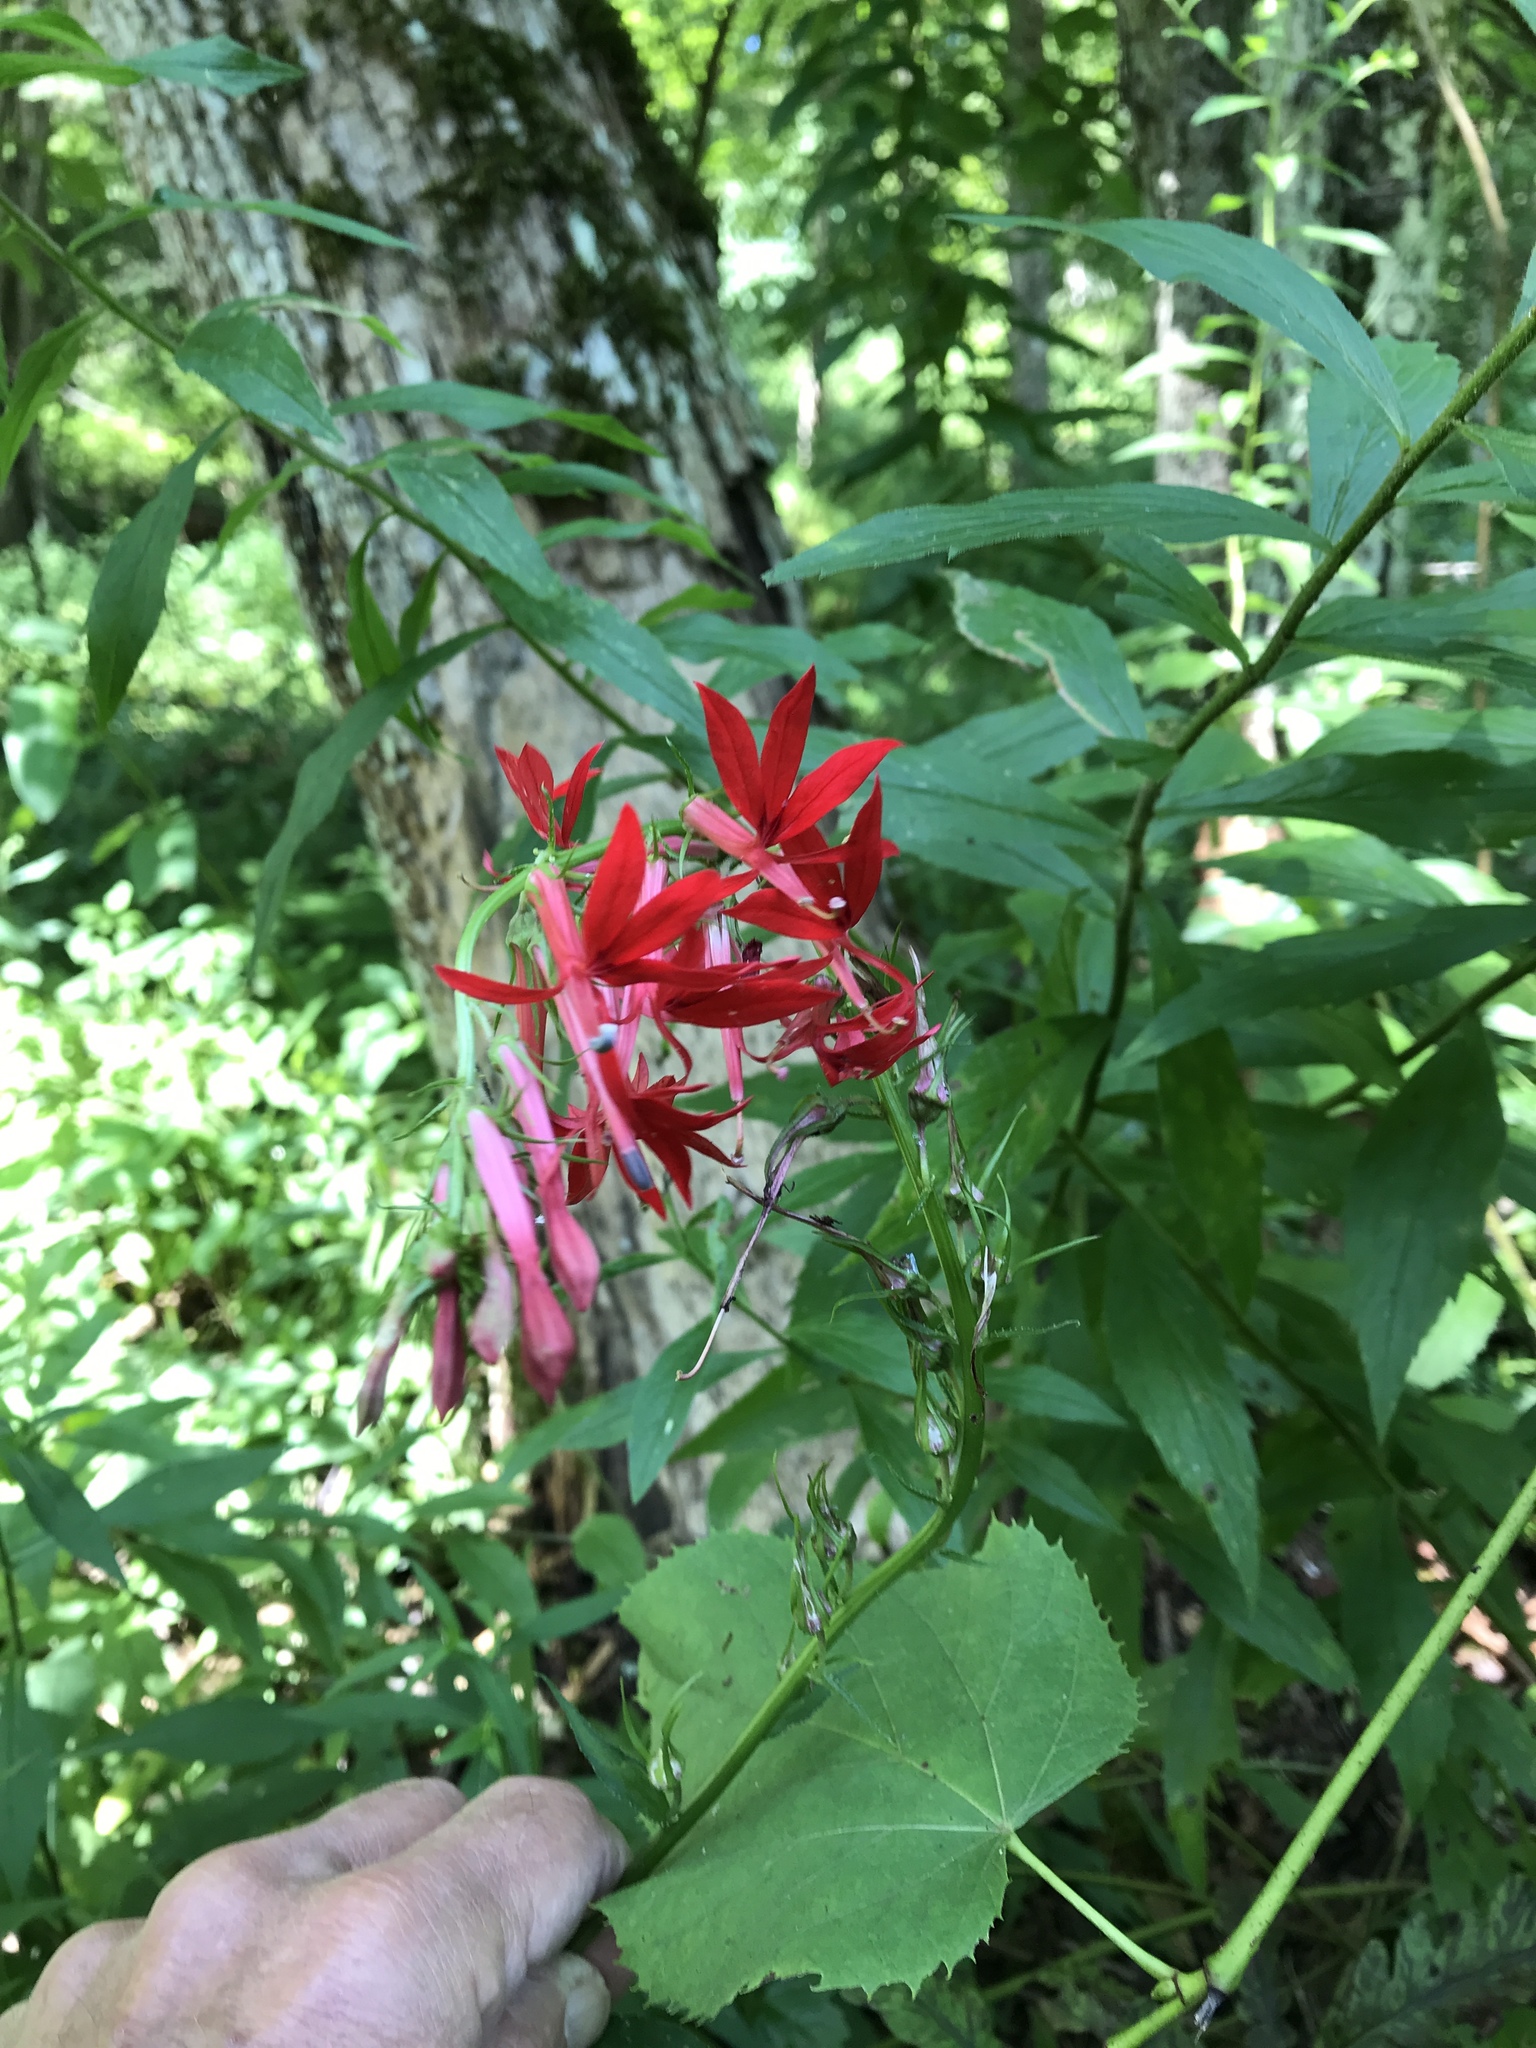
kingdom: Plantae
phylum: Tracheophyta
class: Magnoliopsida
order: Asterales
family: Campanulaceae
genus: Lobelia
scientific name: Lobelia cardinalis
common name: Cardinal flower
